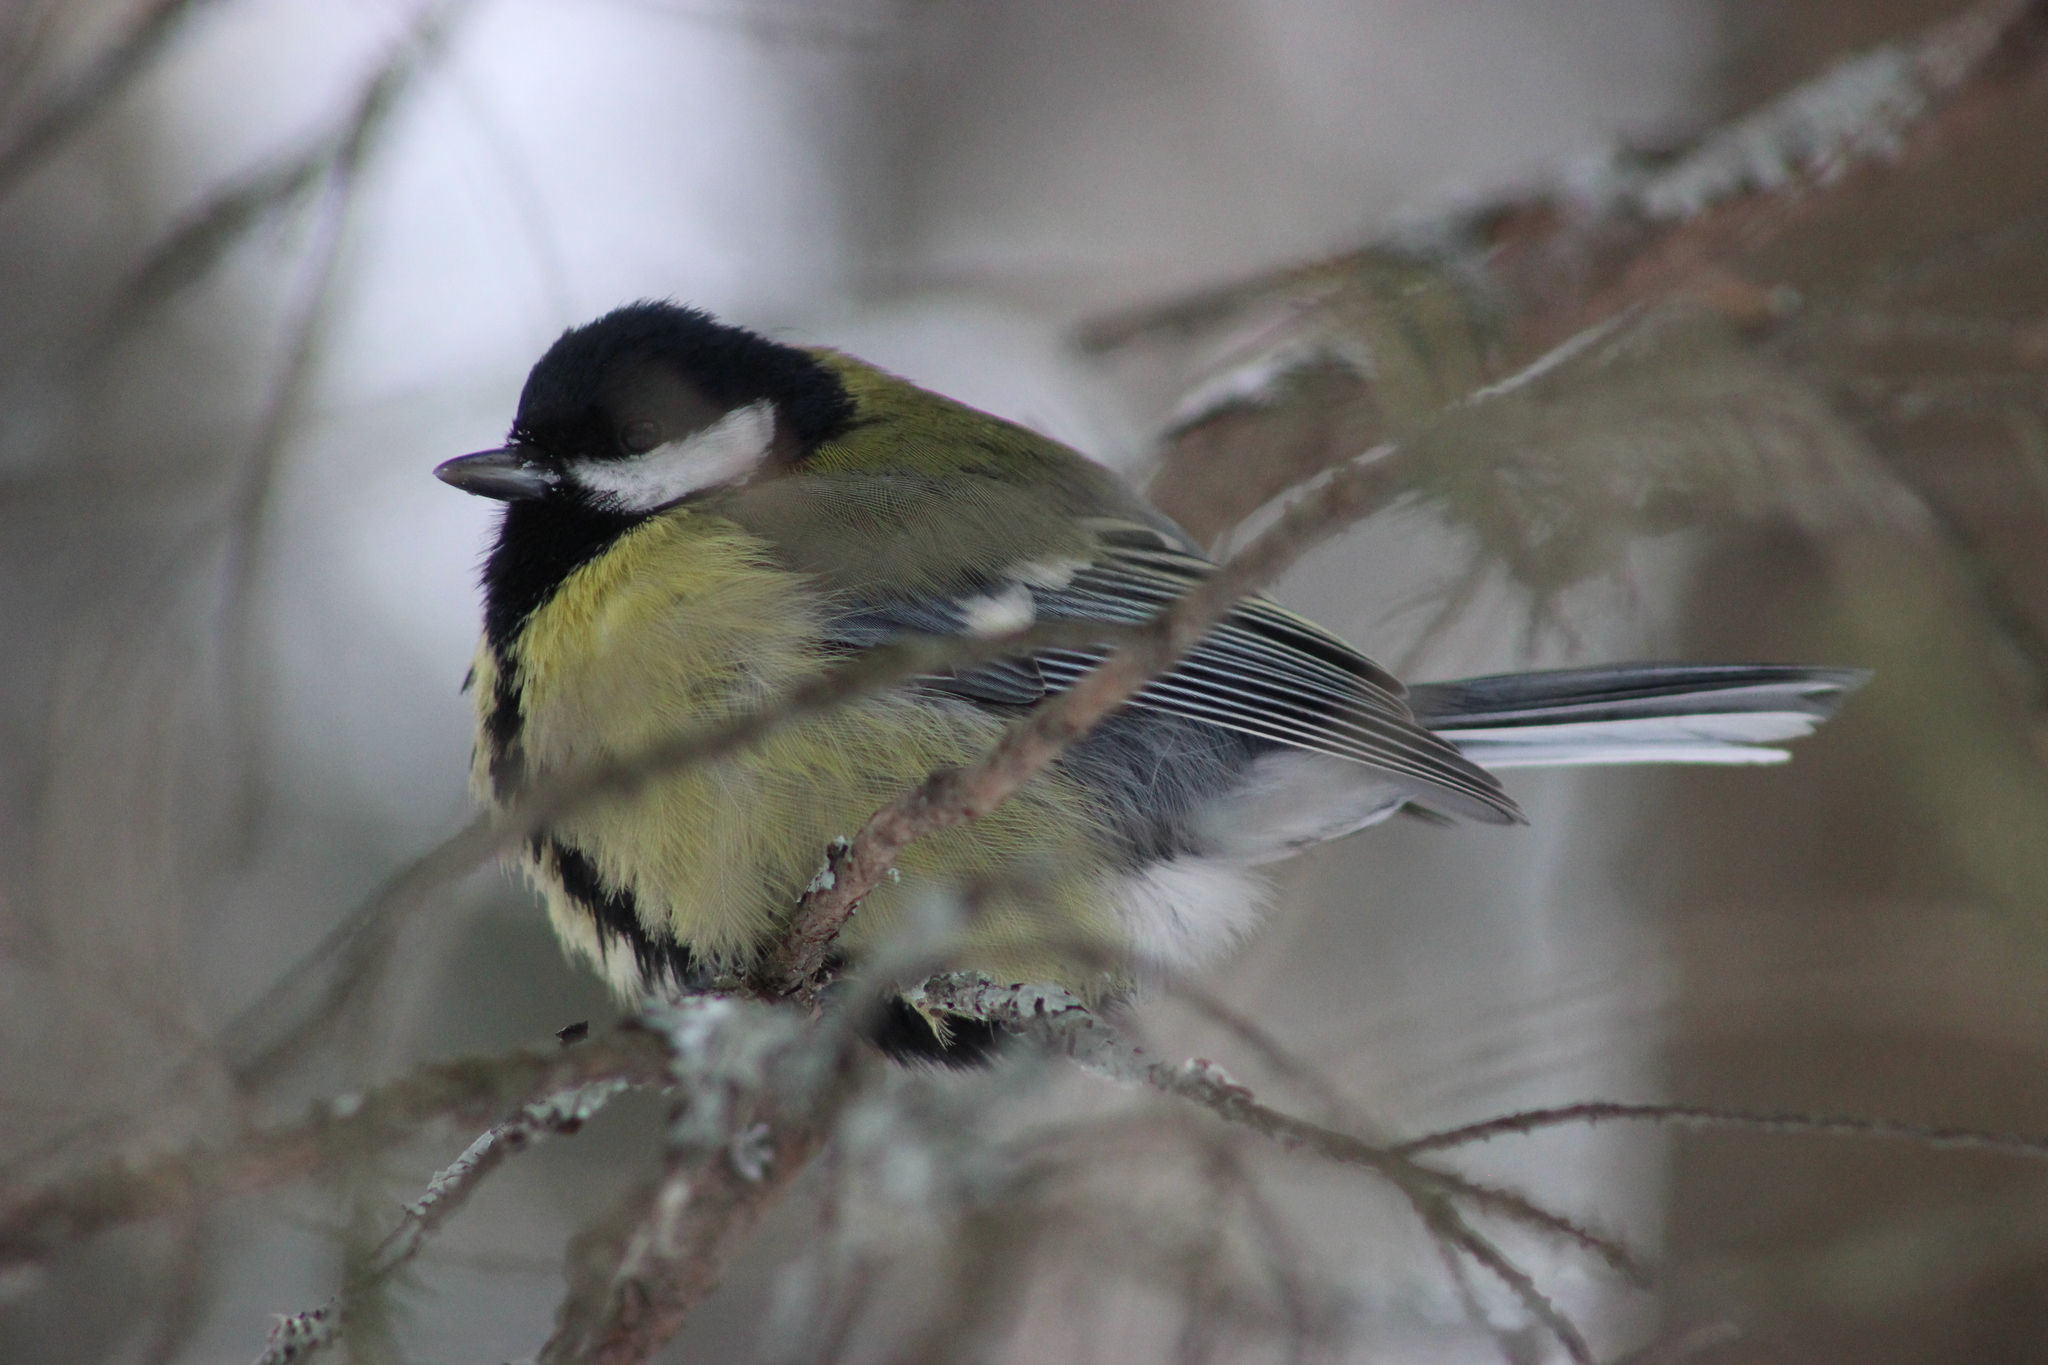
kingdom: Animalia
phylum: Chordata
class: Aves
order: Passeriformes
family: Paridae
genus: Parus
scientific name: Parus major
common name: Great tit
